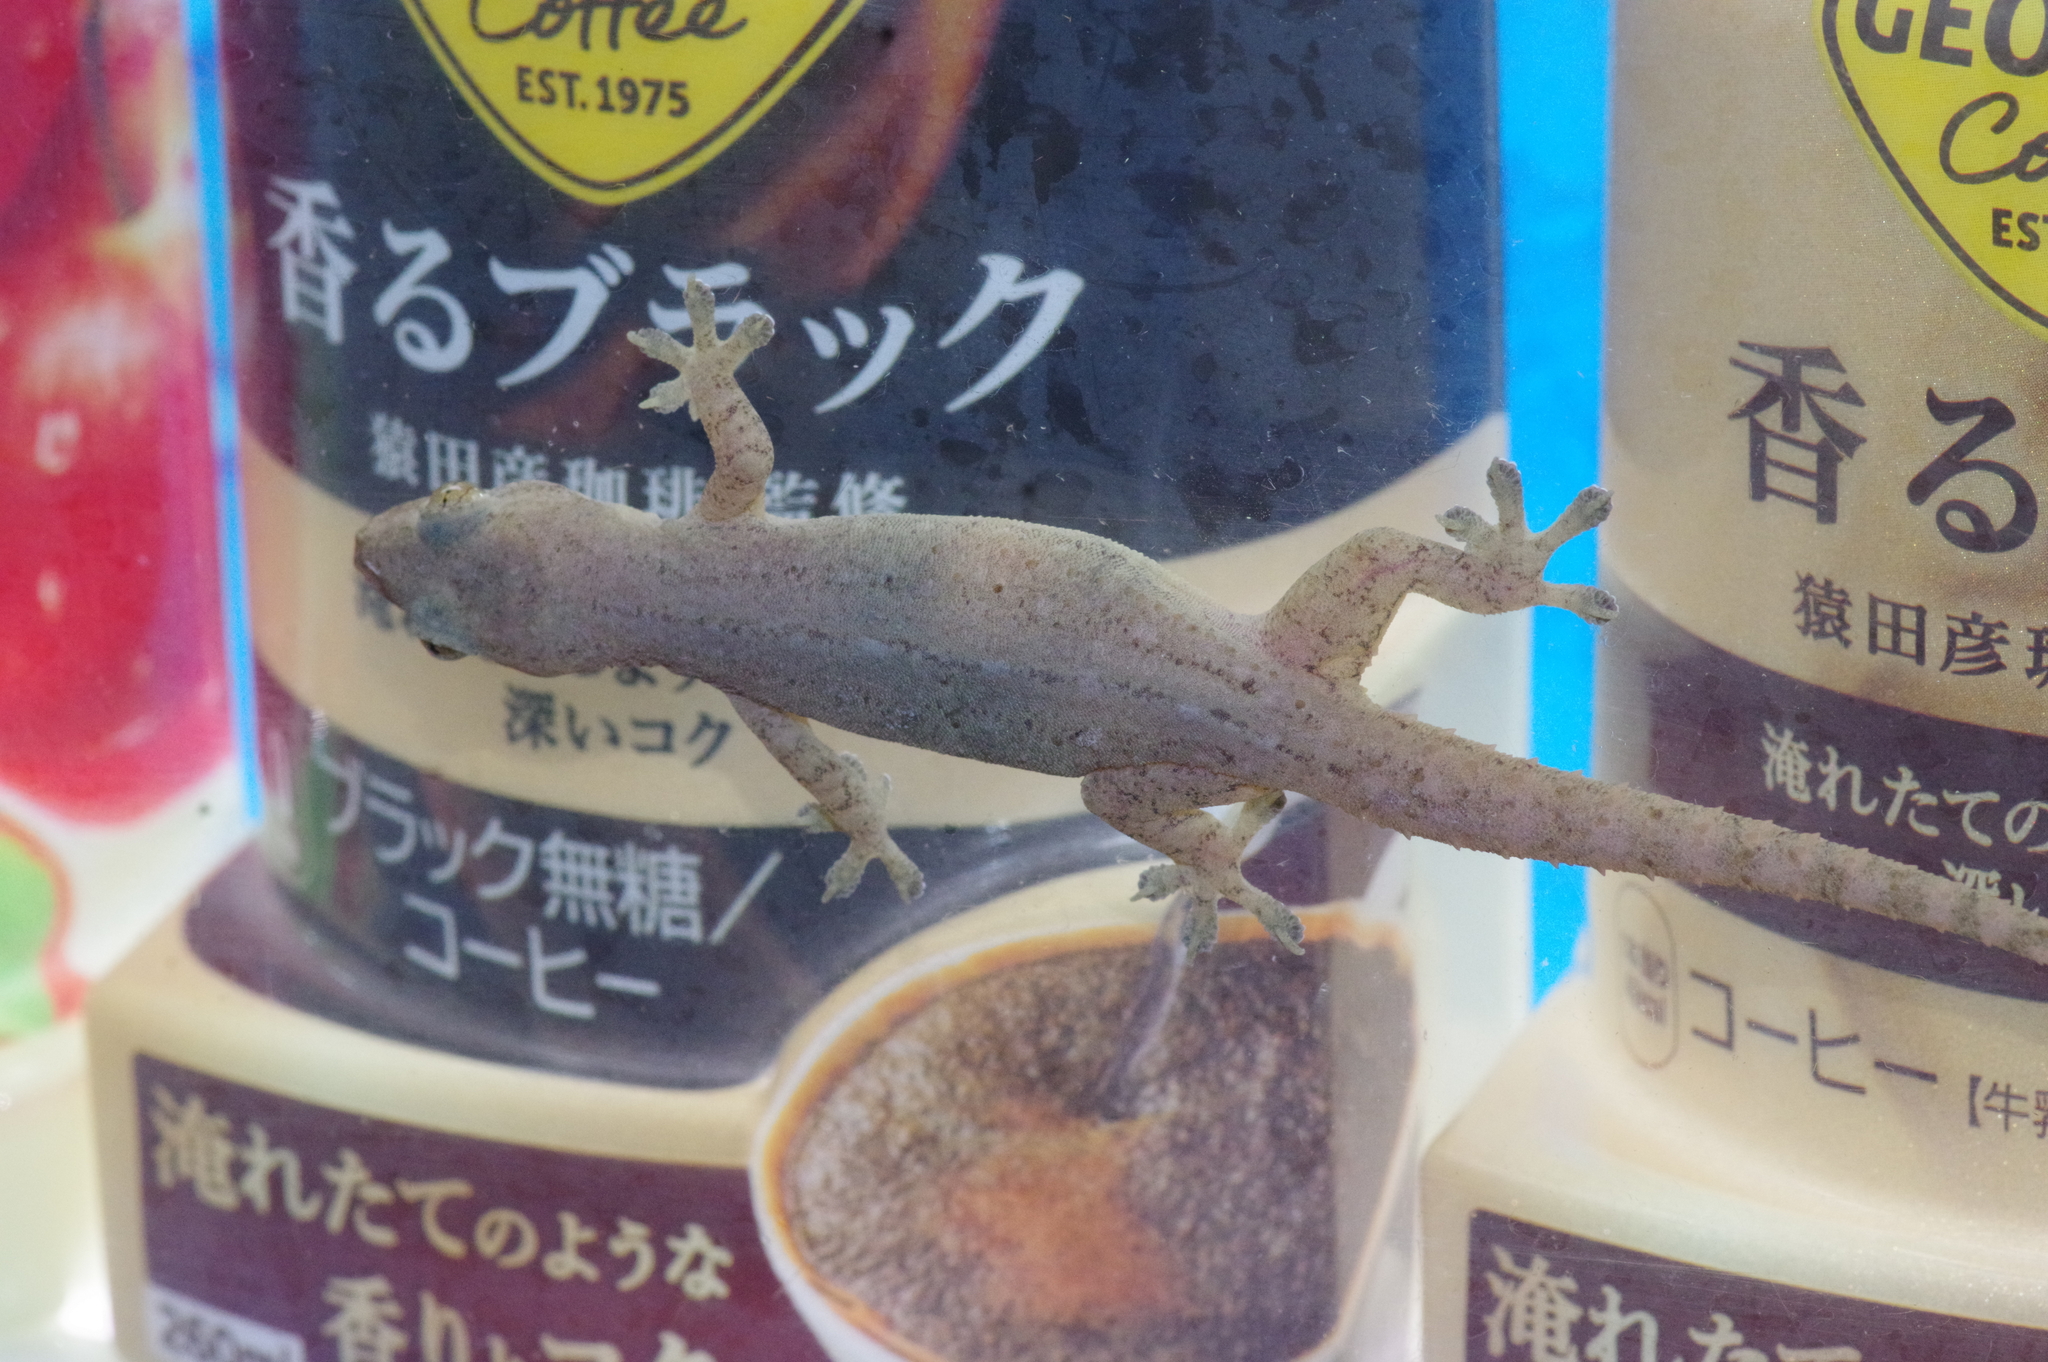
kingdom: Animalia
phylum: Chordata
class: Squamata
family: Gekkonidae
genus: Hemidactylus
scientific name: Hemidactylus frenatus
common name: Common house gecko
